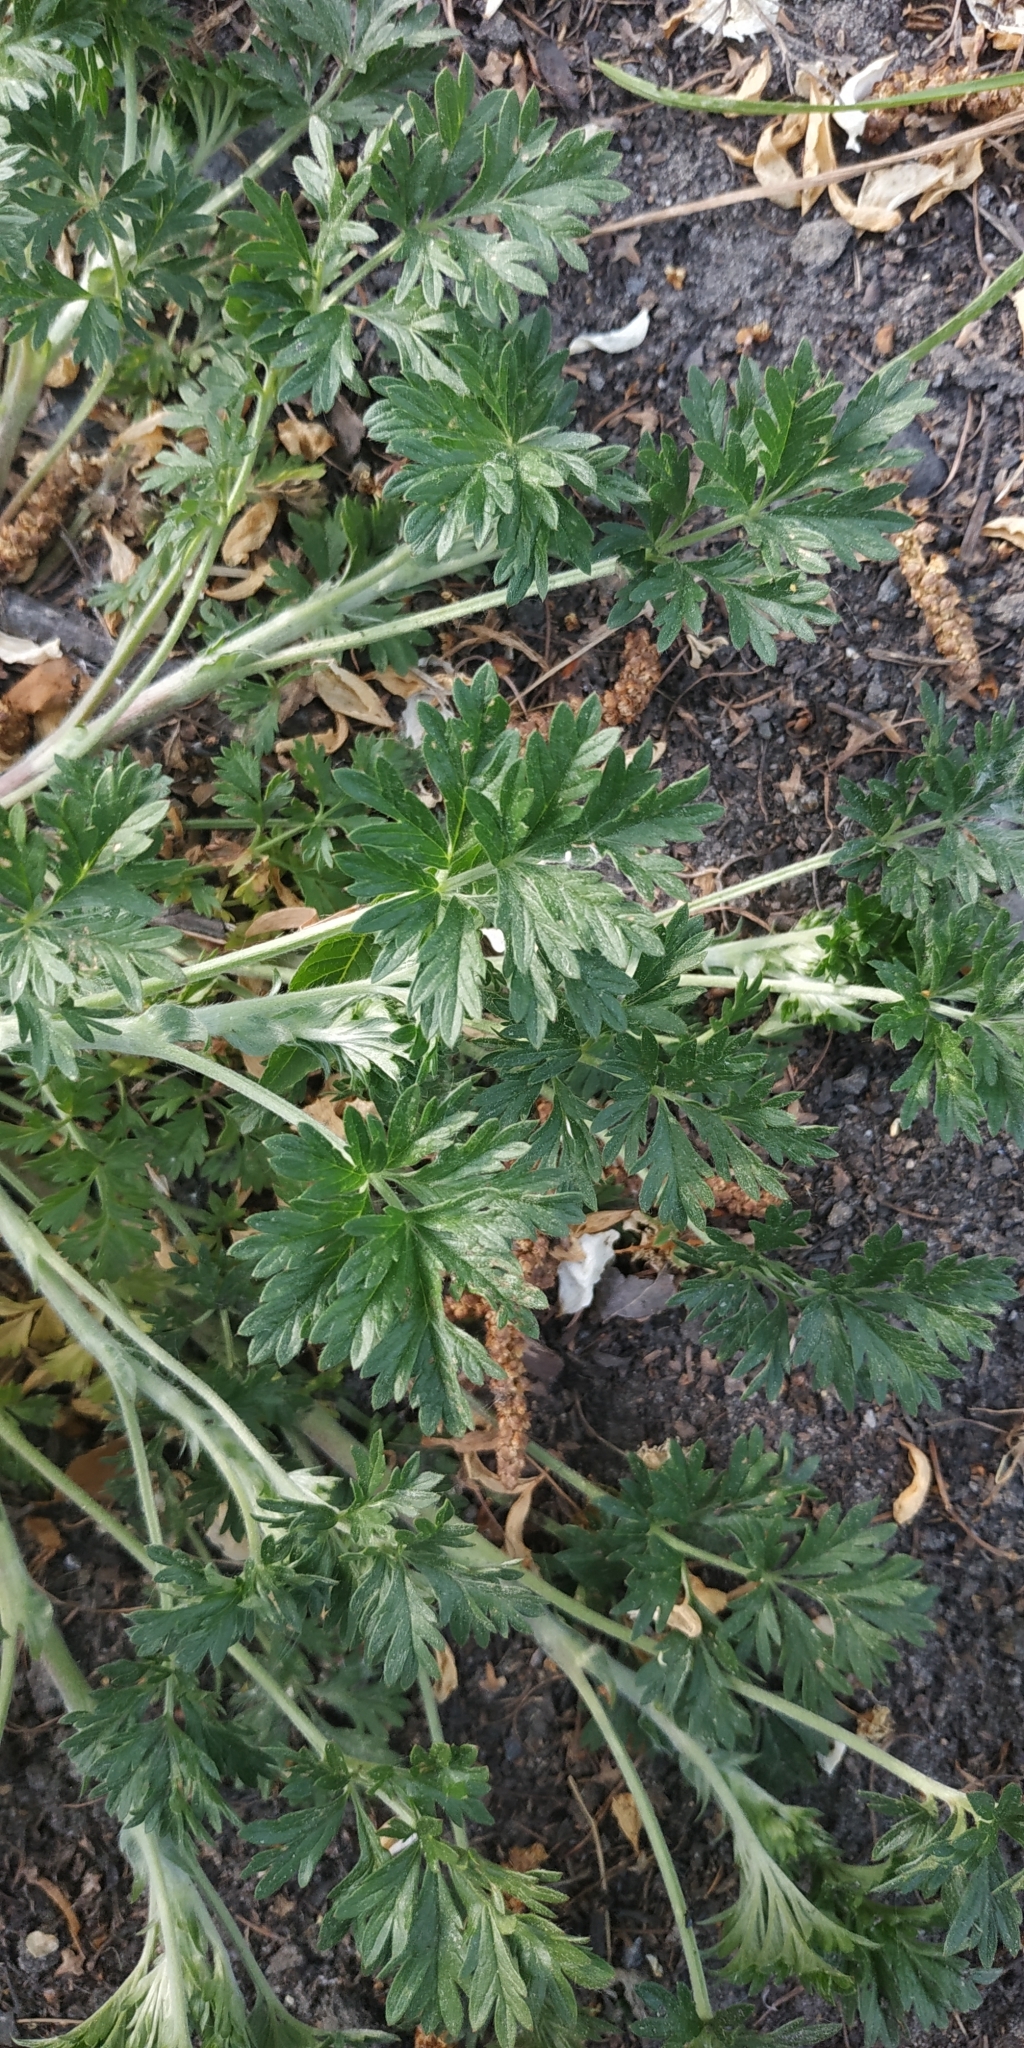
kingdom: Plantae
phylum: Tracheophyta
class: Magnoliopsida
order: Rosales
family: Rosaceae
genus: Potentilla
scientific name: Potentilla tobolensis
